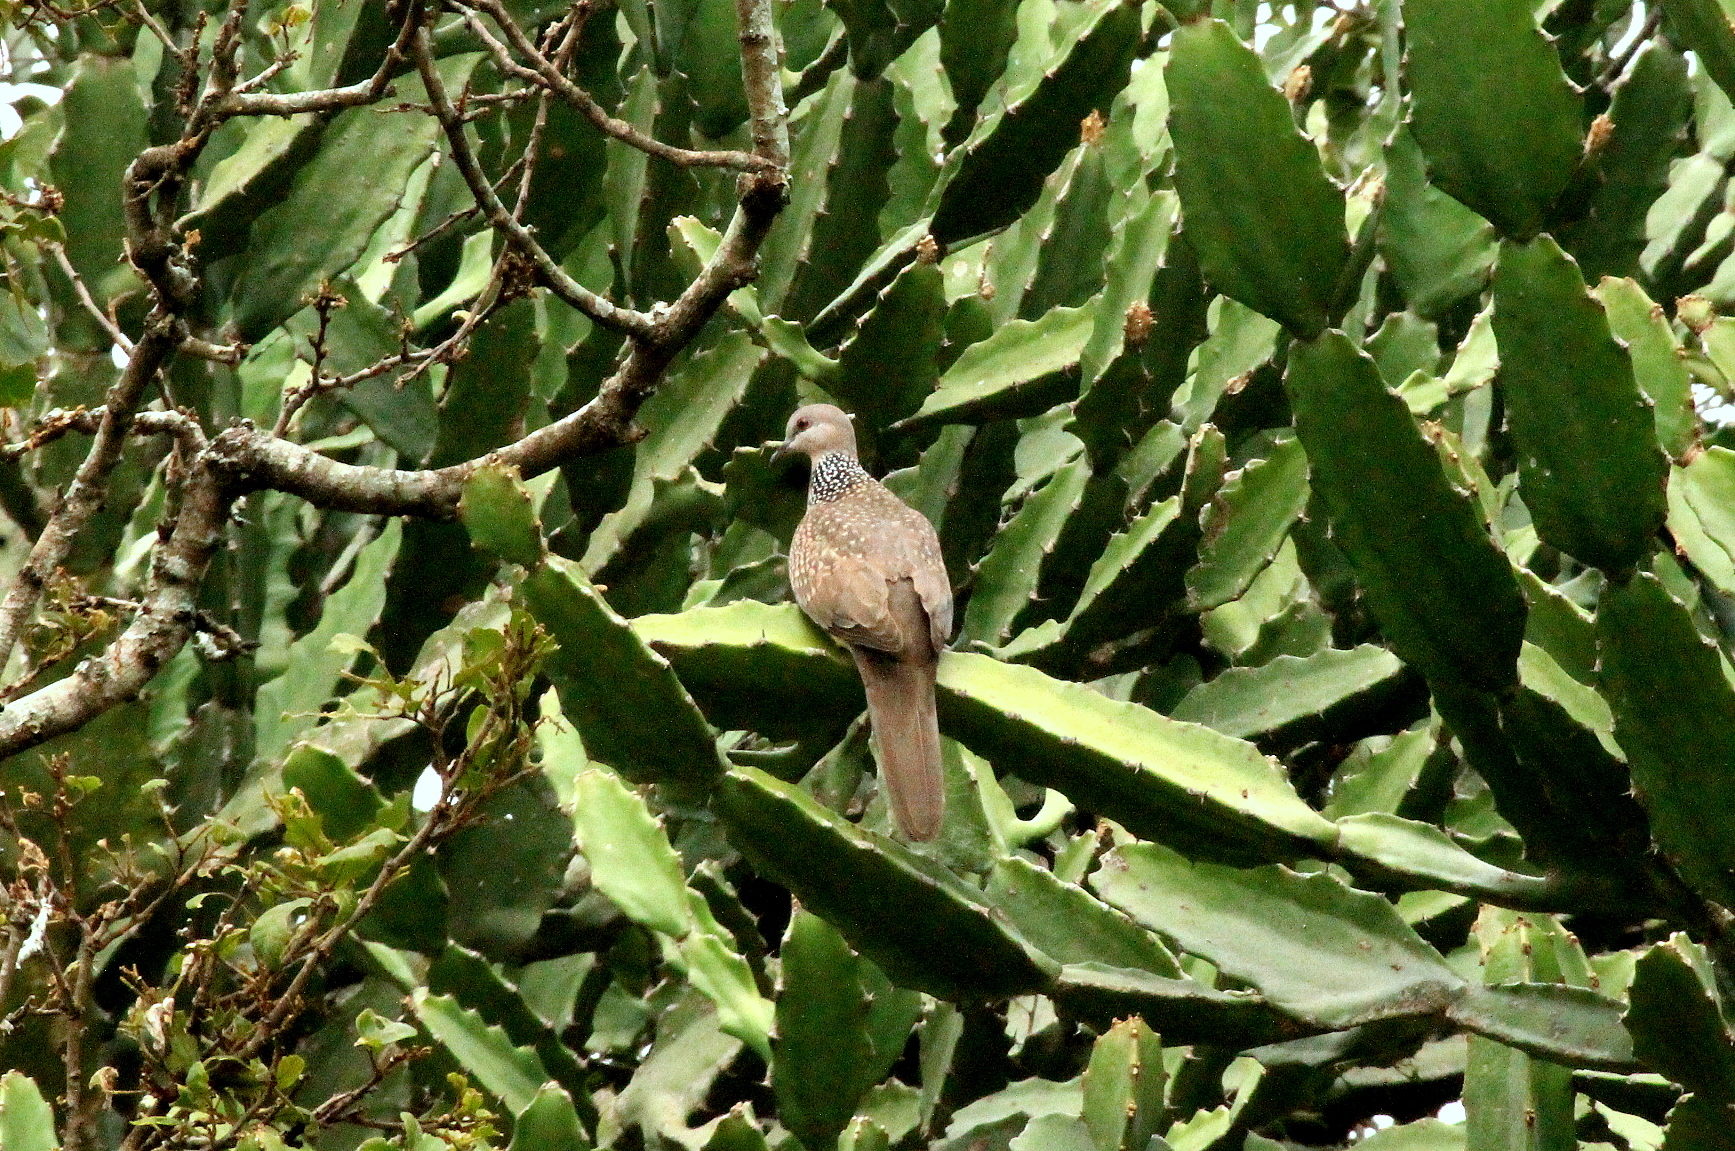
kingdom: Animalia
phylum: Chordata
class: Aves
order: Columbiformes
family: Columbidae
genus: Spilopelia
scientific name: Spilopelia chinensis
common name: Spotted dove
